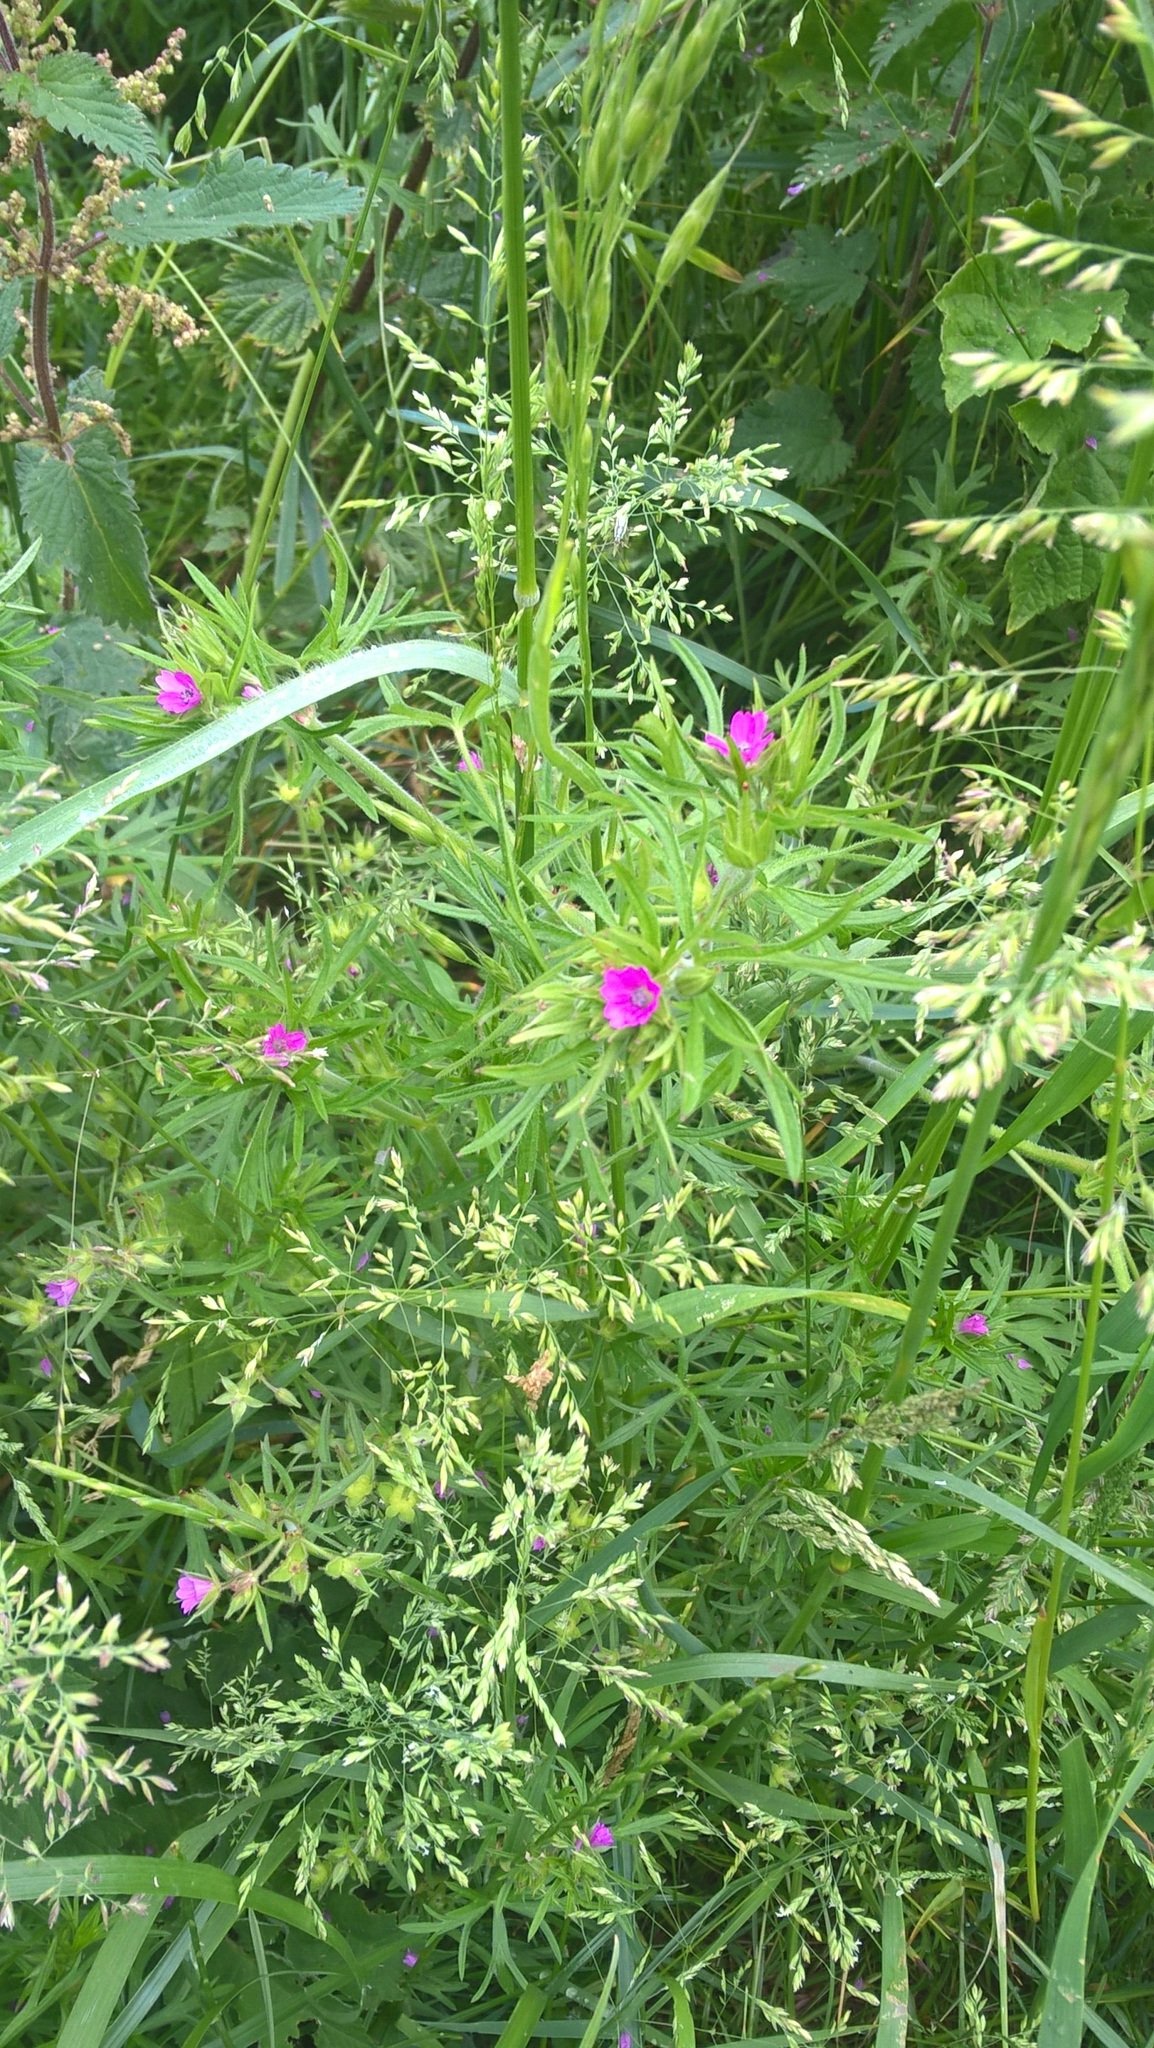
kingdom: Plantae
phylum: Tracheophyta
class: Magnoliopsida
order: Geraniales
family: Geraniaceae
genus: Geranium
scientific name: Geranium dissectum
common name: Cut-leaved crane's-bill
